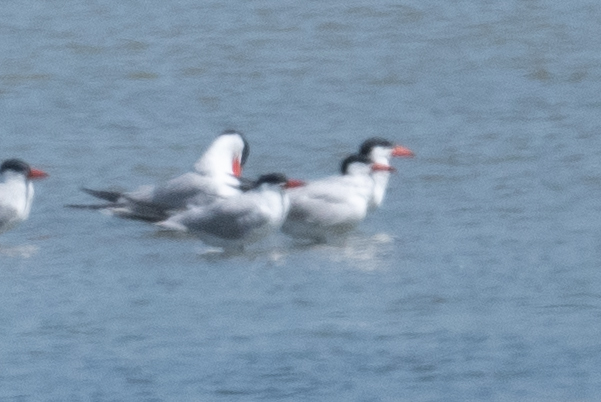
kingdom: Animalia
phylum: Chordata
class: Aves
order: Charadriiformes
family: Laridae
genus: Hydroprogne
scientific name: Hydroprogne caspia
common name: Caspian tern
